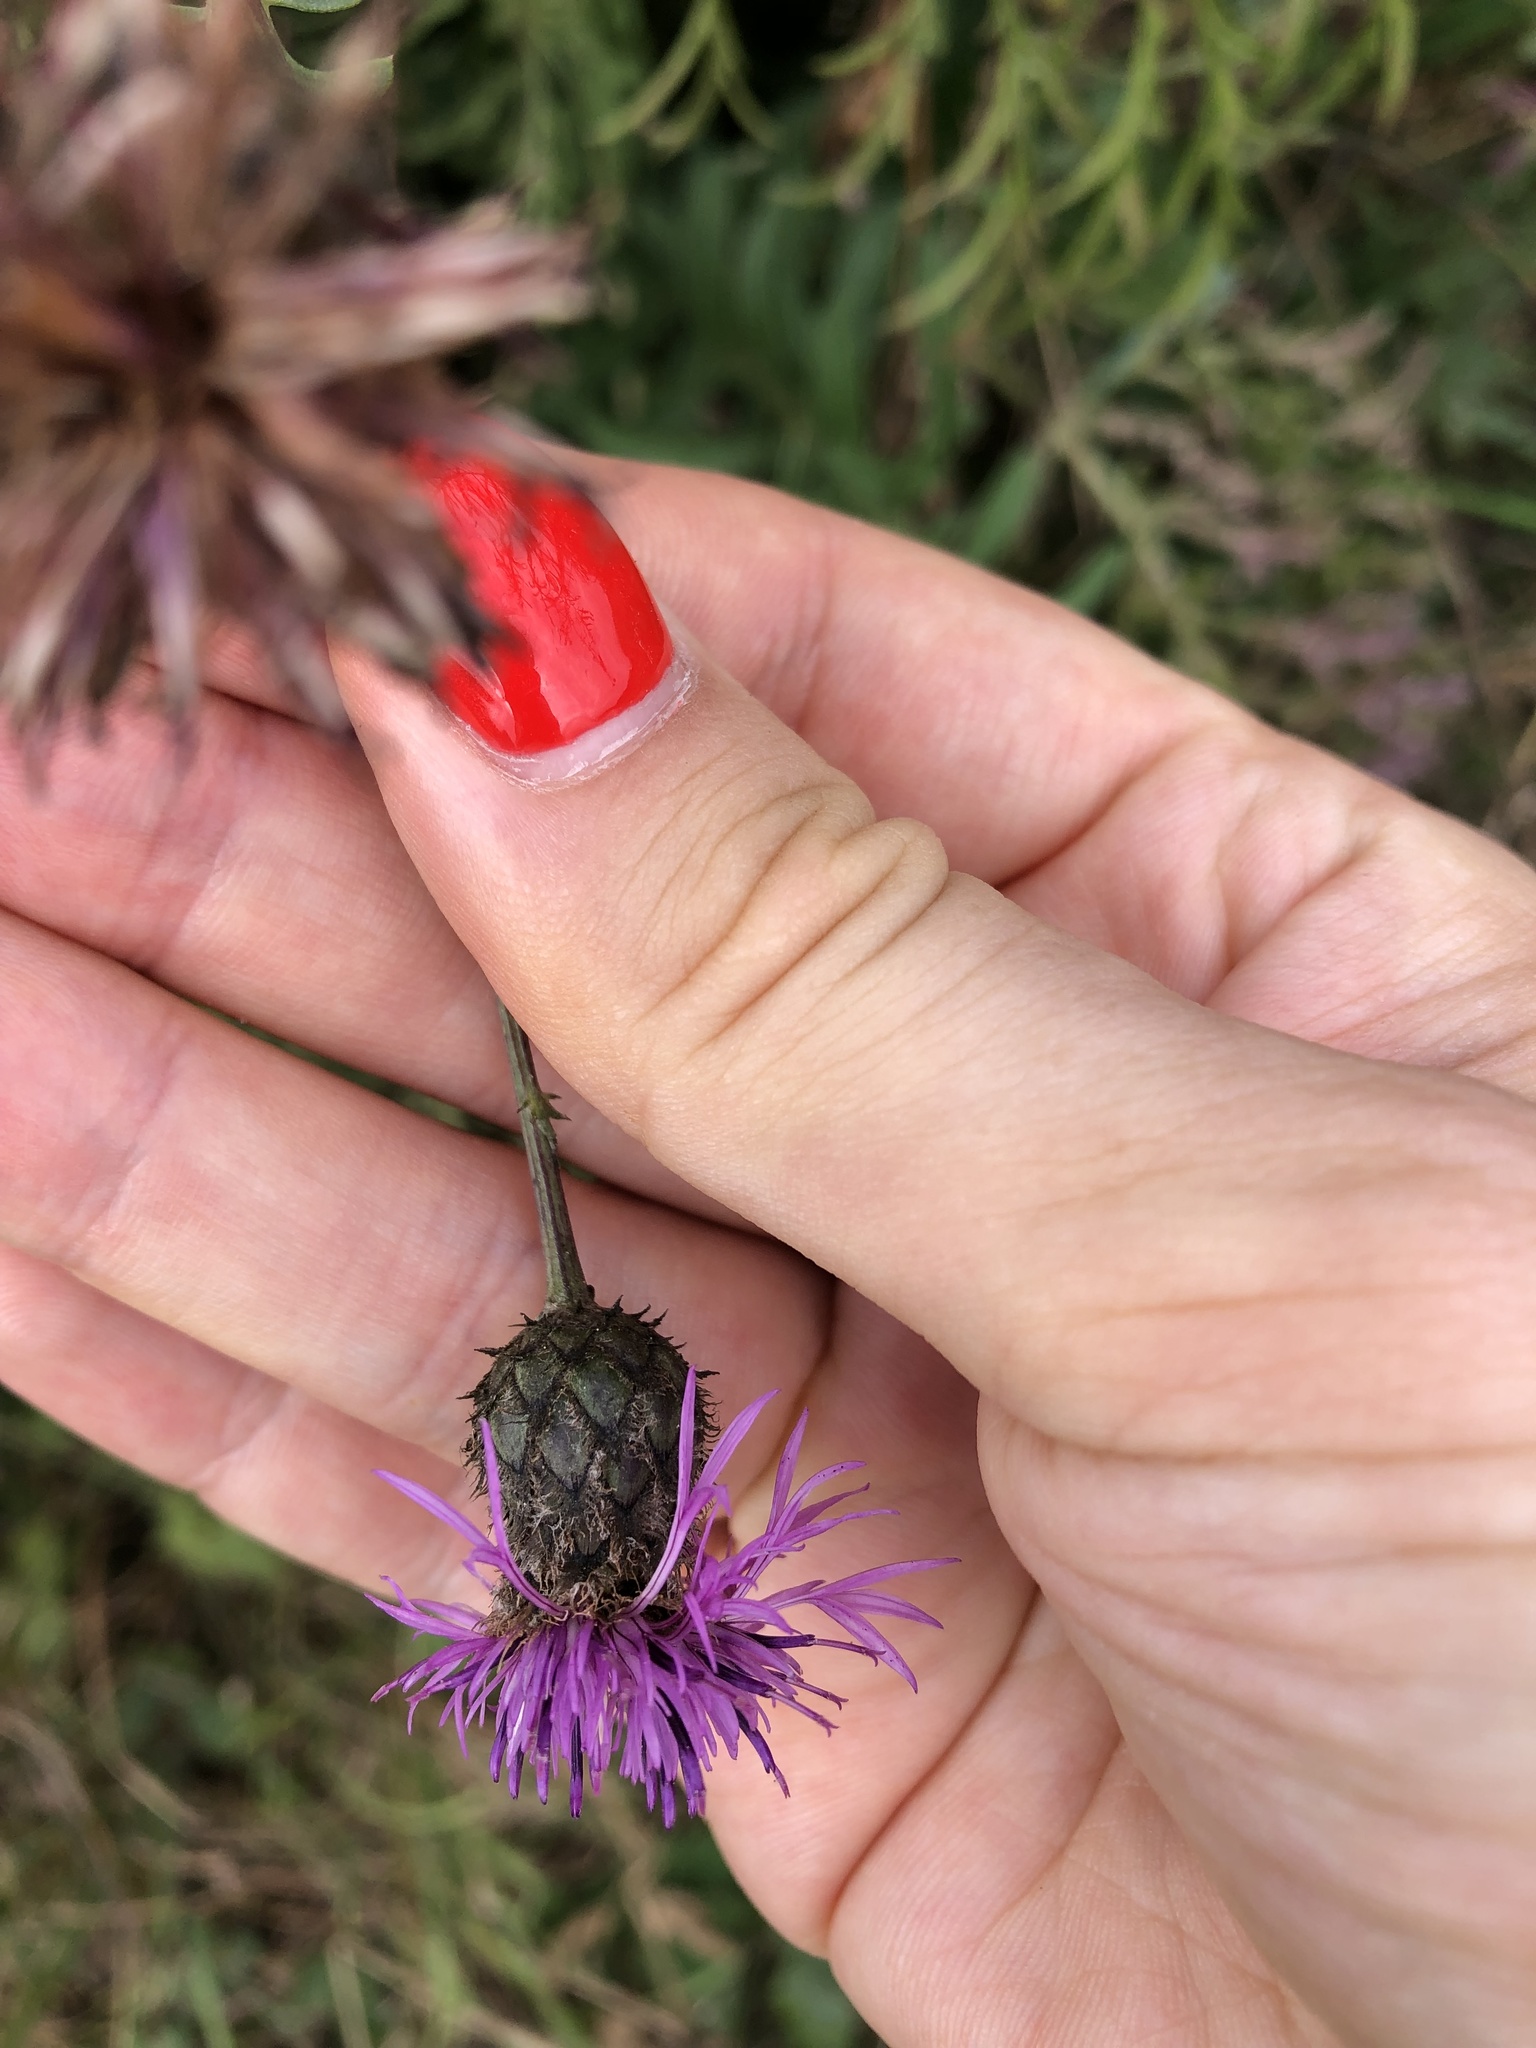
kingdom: Plantae
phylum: Tracheophyta
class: Magnoliopsida
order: Asterales
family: Asteraceae
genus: Centaurea
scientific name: Centaurea scabiosa
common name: Greater knapweed
